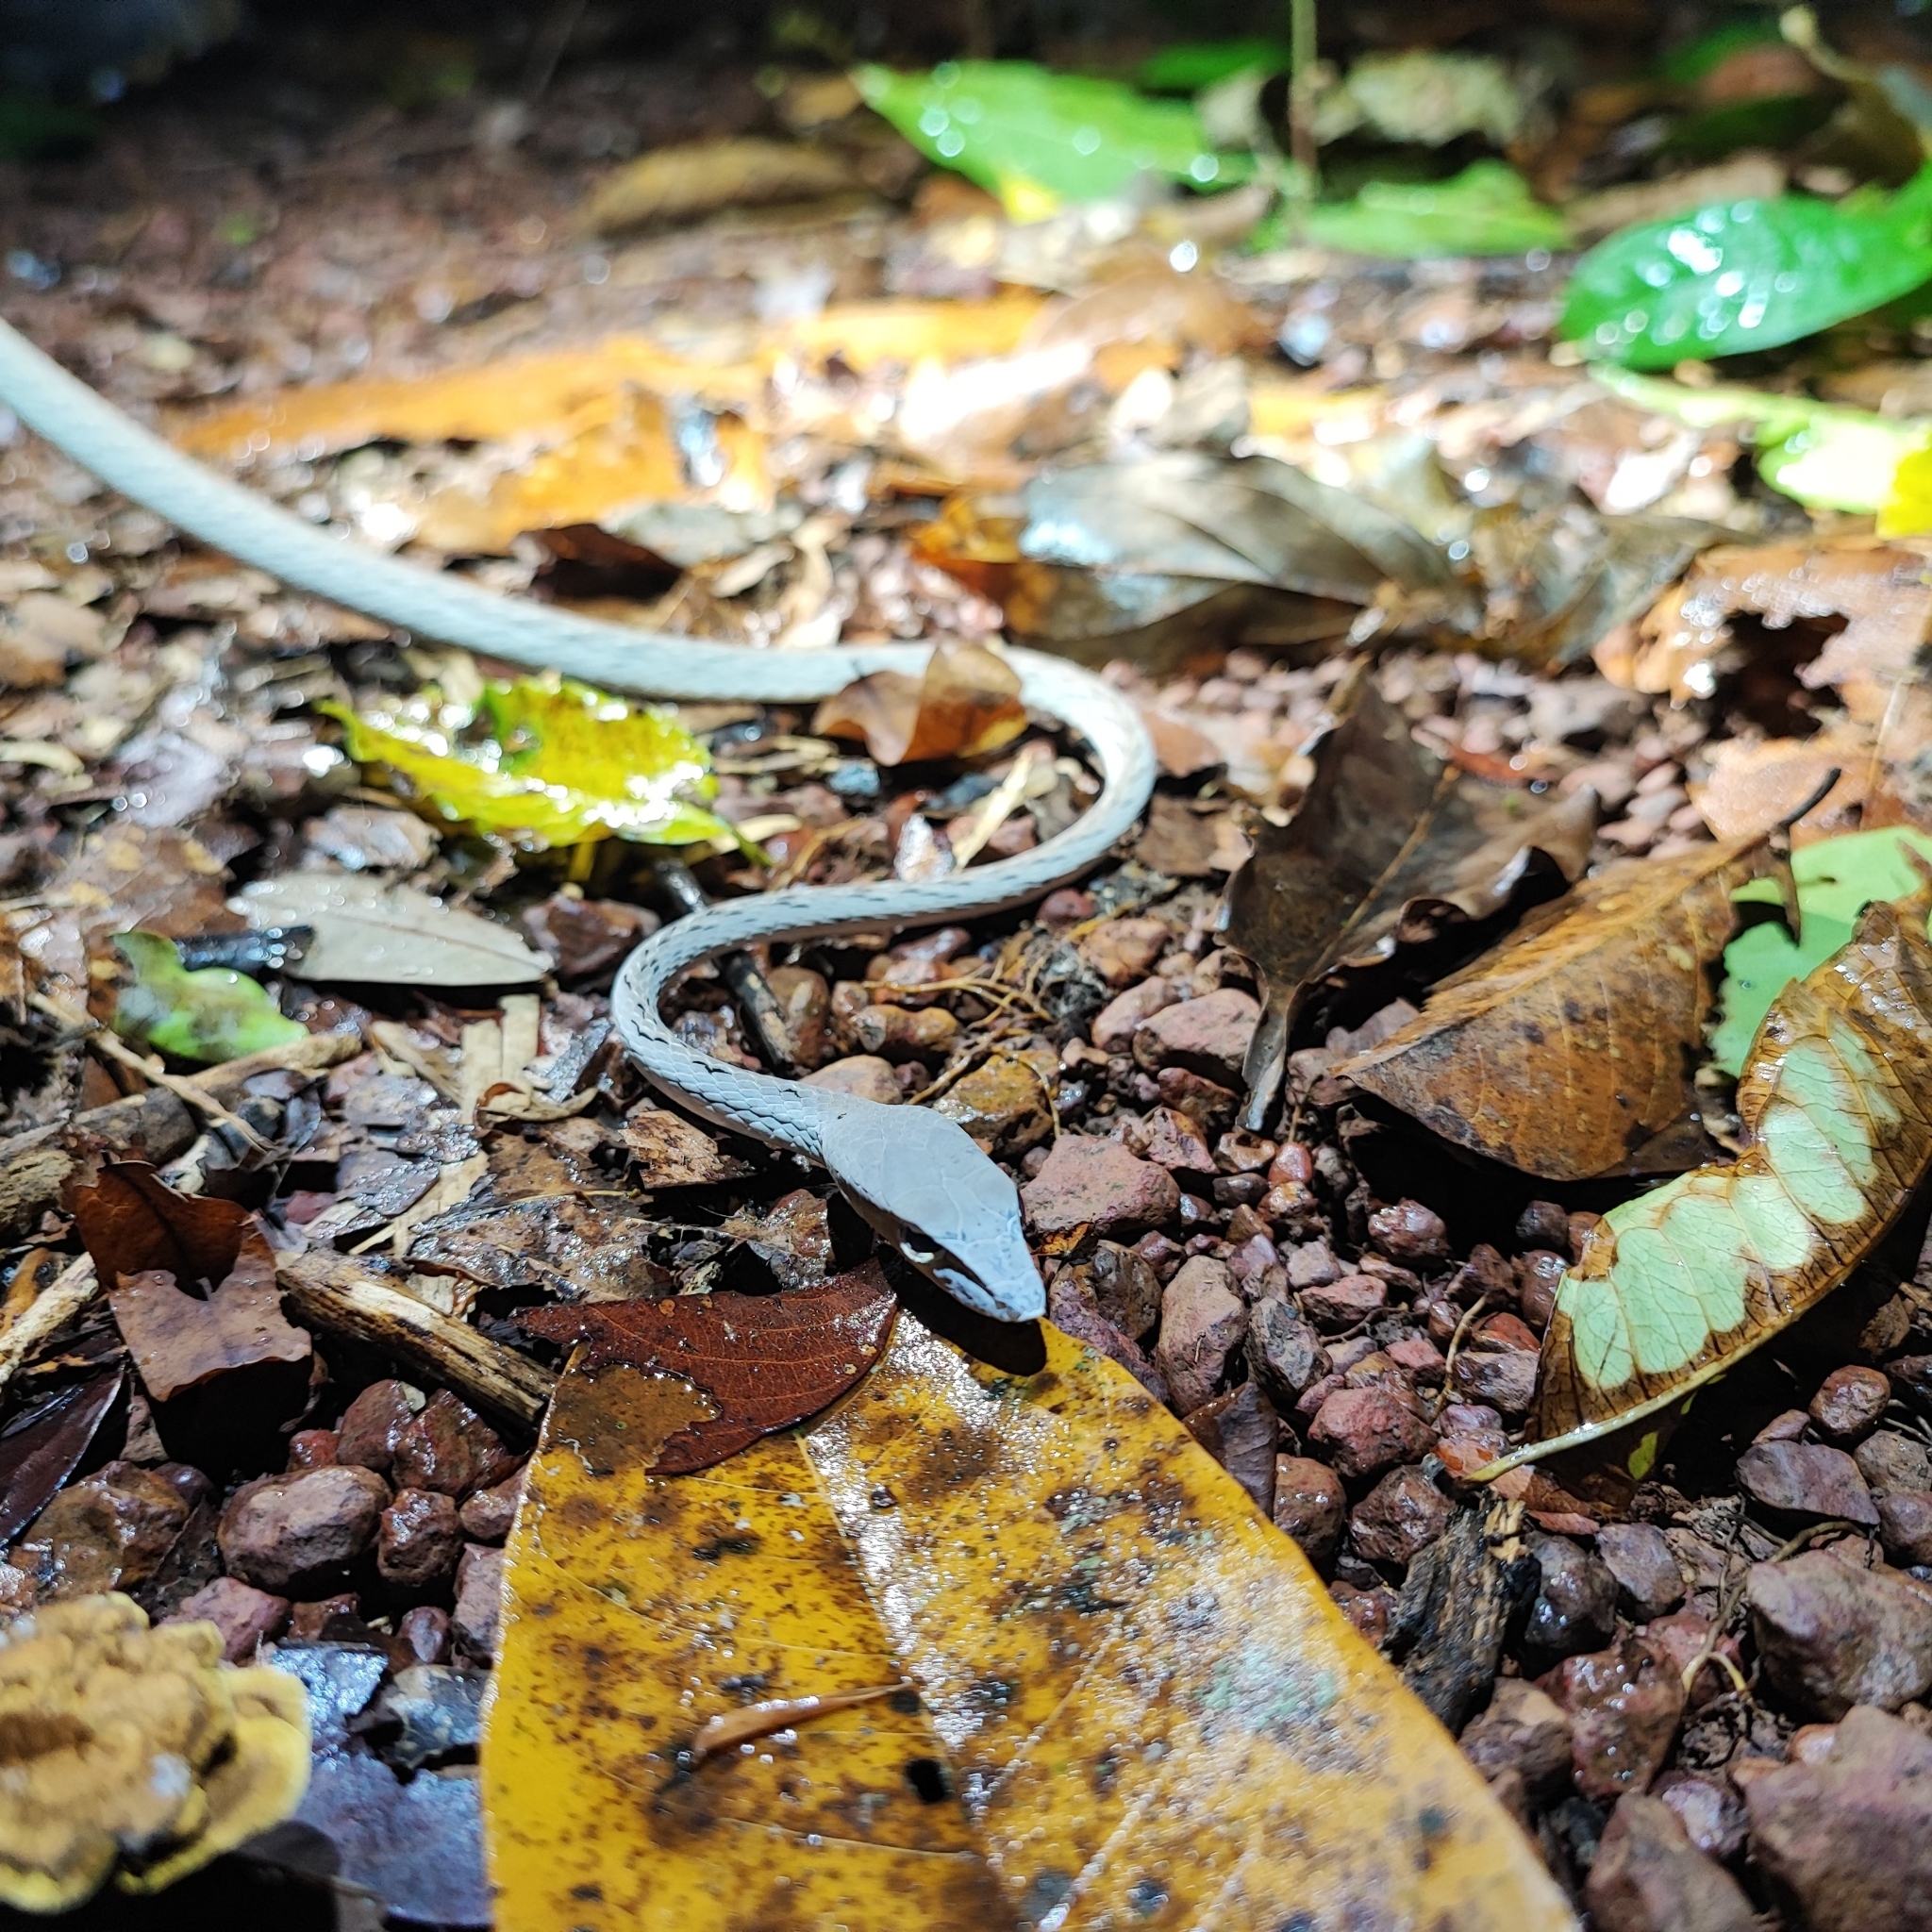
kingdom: Animalia
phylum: Chordata
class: Squamata
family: Colubridae
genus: Ahaetulla
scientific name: Ahaetulla prasina
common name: Oriental whip snake
